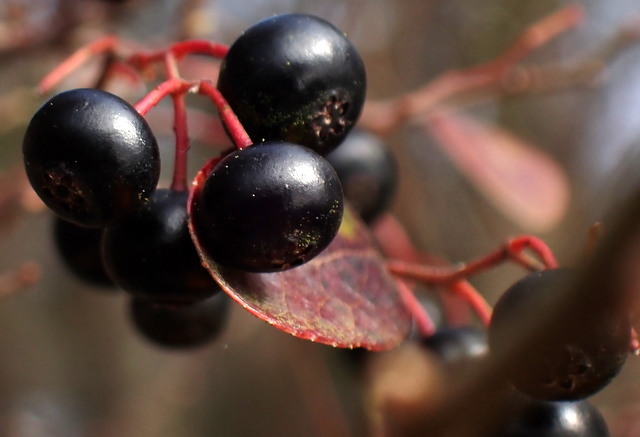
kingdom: Plantae
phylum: Tracheophyta
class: Magnoliopsida
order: Ericales
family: Ericaceae
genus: Vaccinium
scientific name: Vaccinium arboreum
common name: Farkleberry
